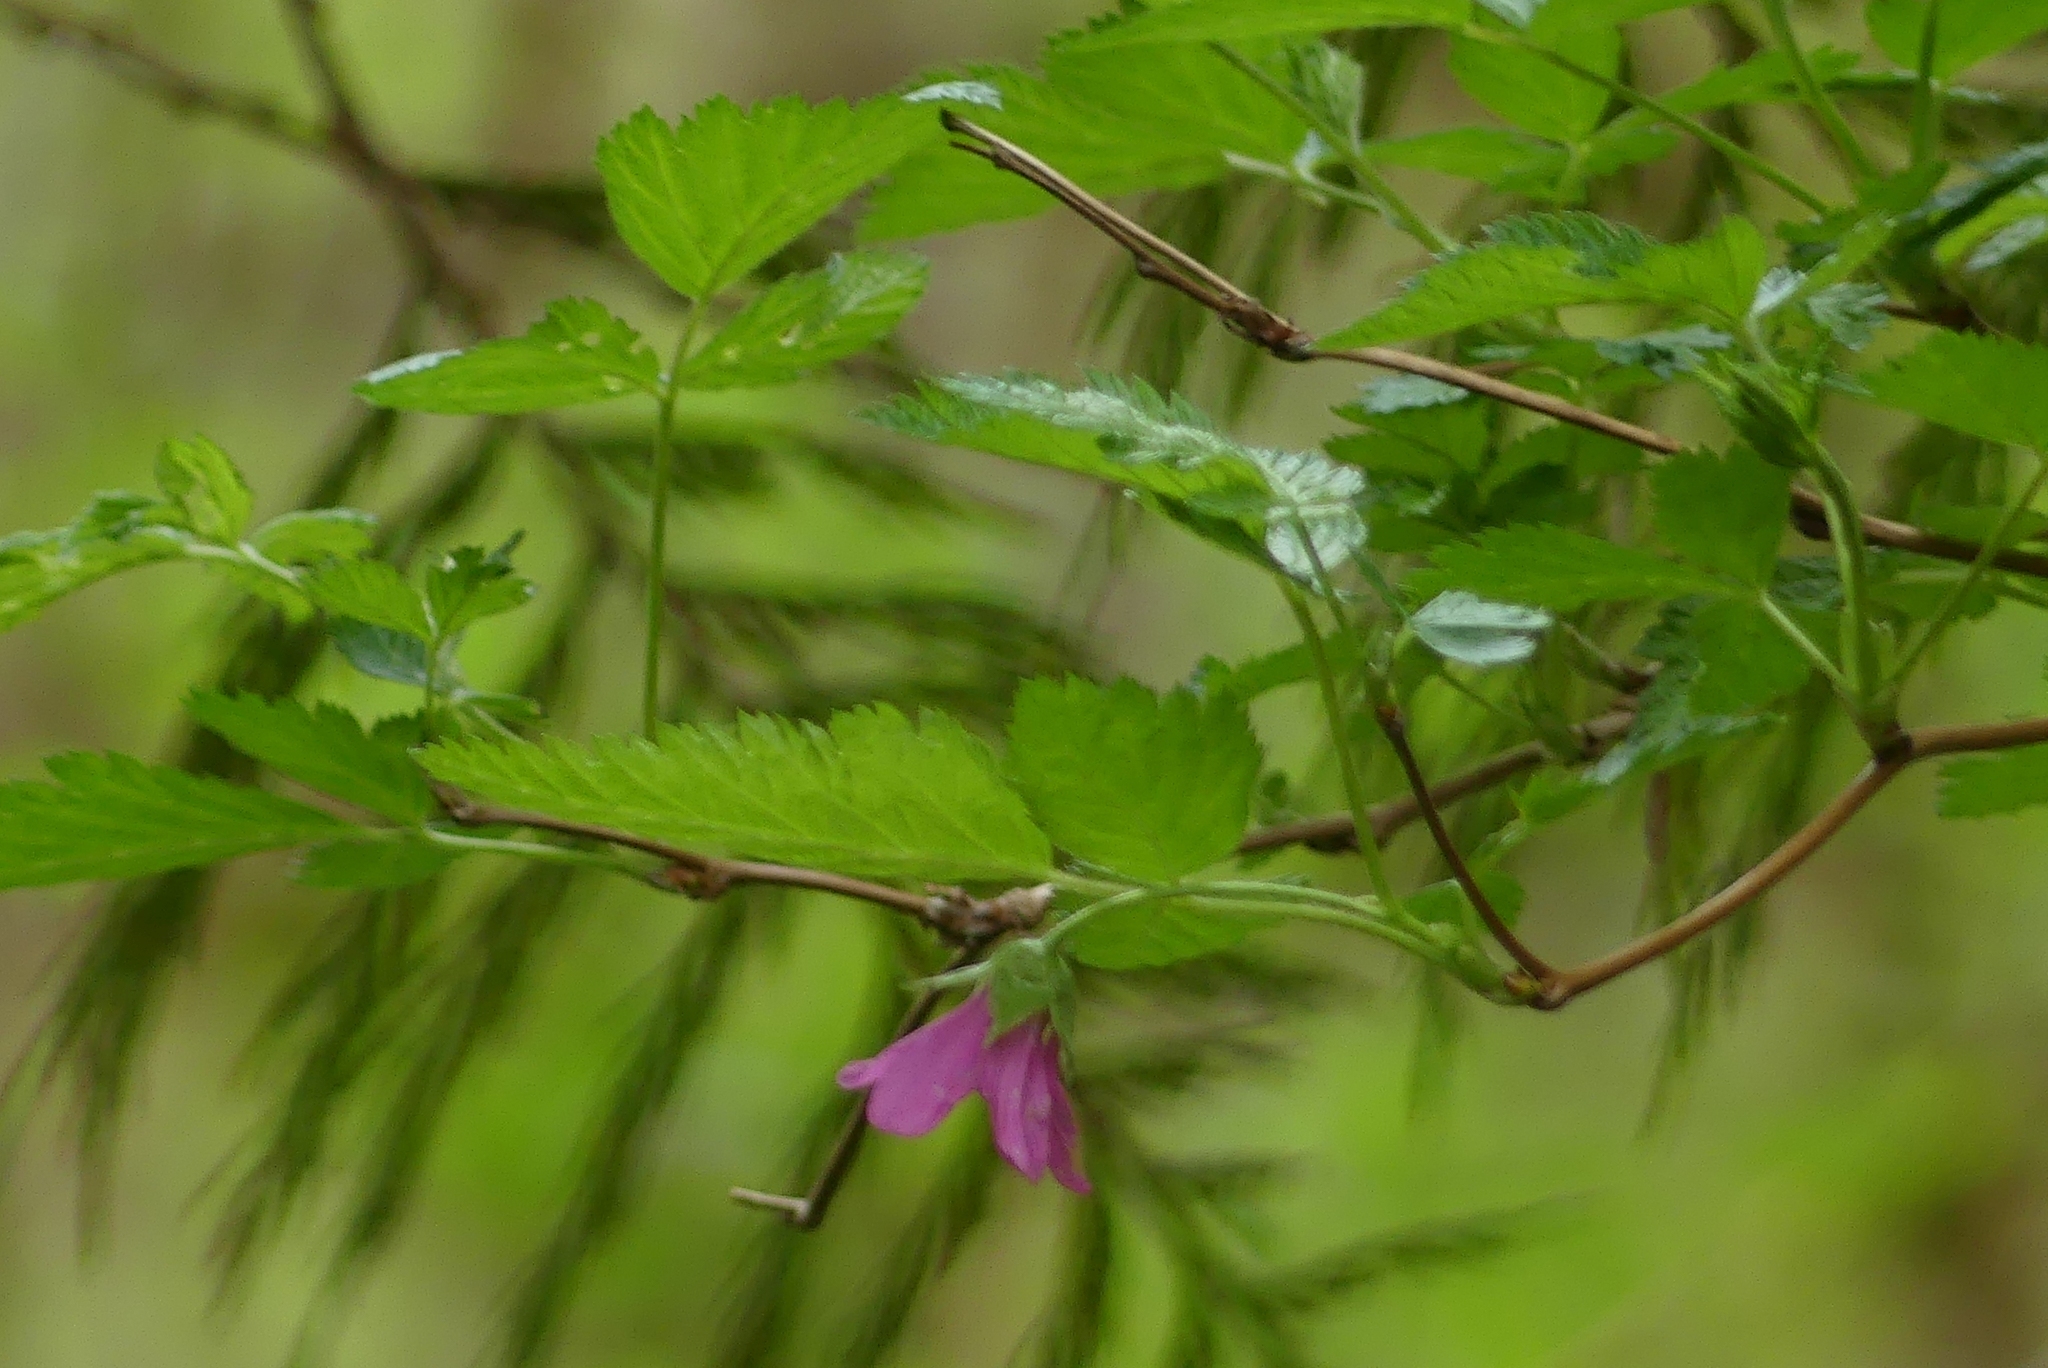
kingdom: Plantae
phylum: Tracheophyta
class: Magnoliopsida
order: Rosales
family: Rosaceae
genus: Rubus
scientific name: Rubus spectabilis
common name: Salmonberry
